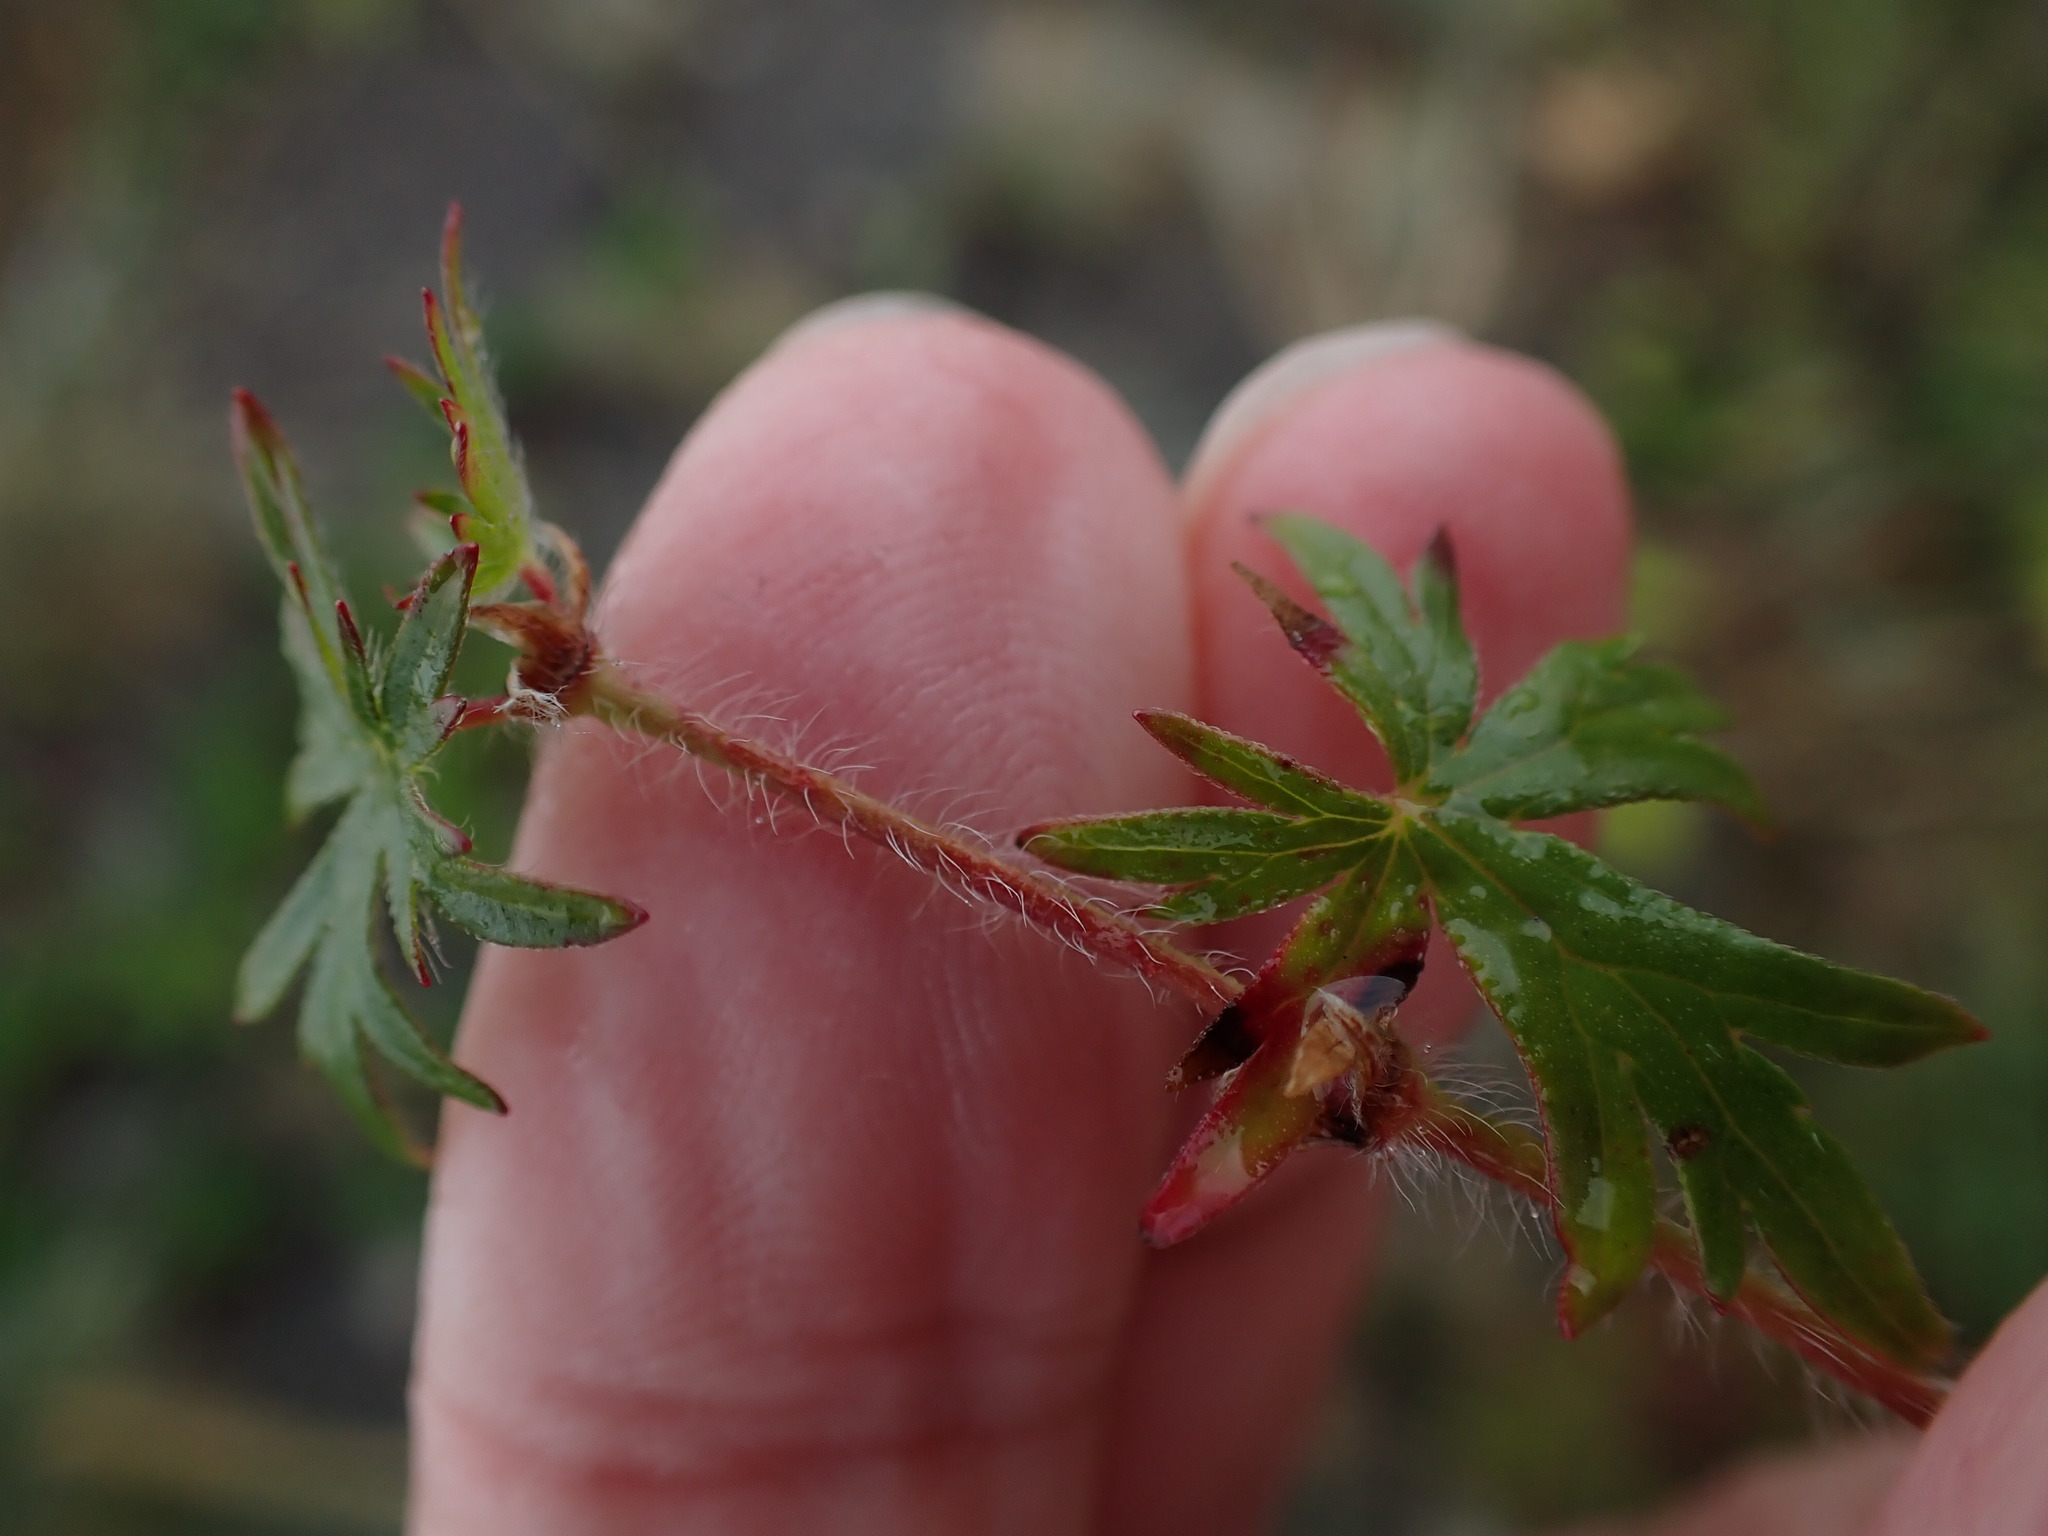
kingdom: Plantae
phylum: Tracheophyta
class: Magnoliopsida
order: Geraniales
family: Geraniaceae
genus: Geranium
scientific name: Geranium sanguineum
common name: Bloody crane's-bill
